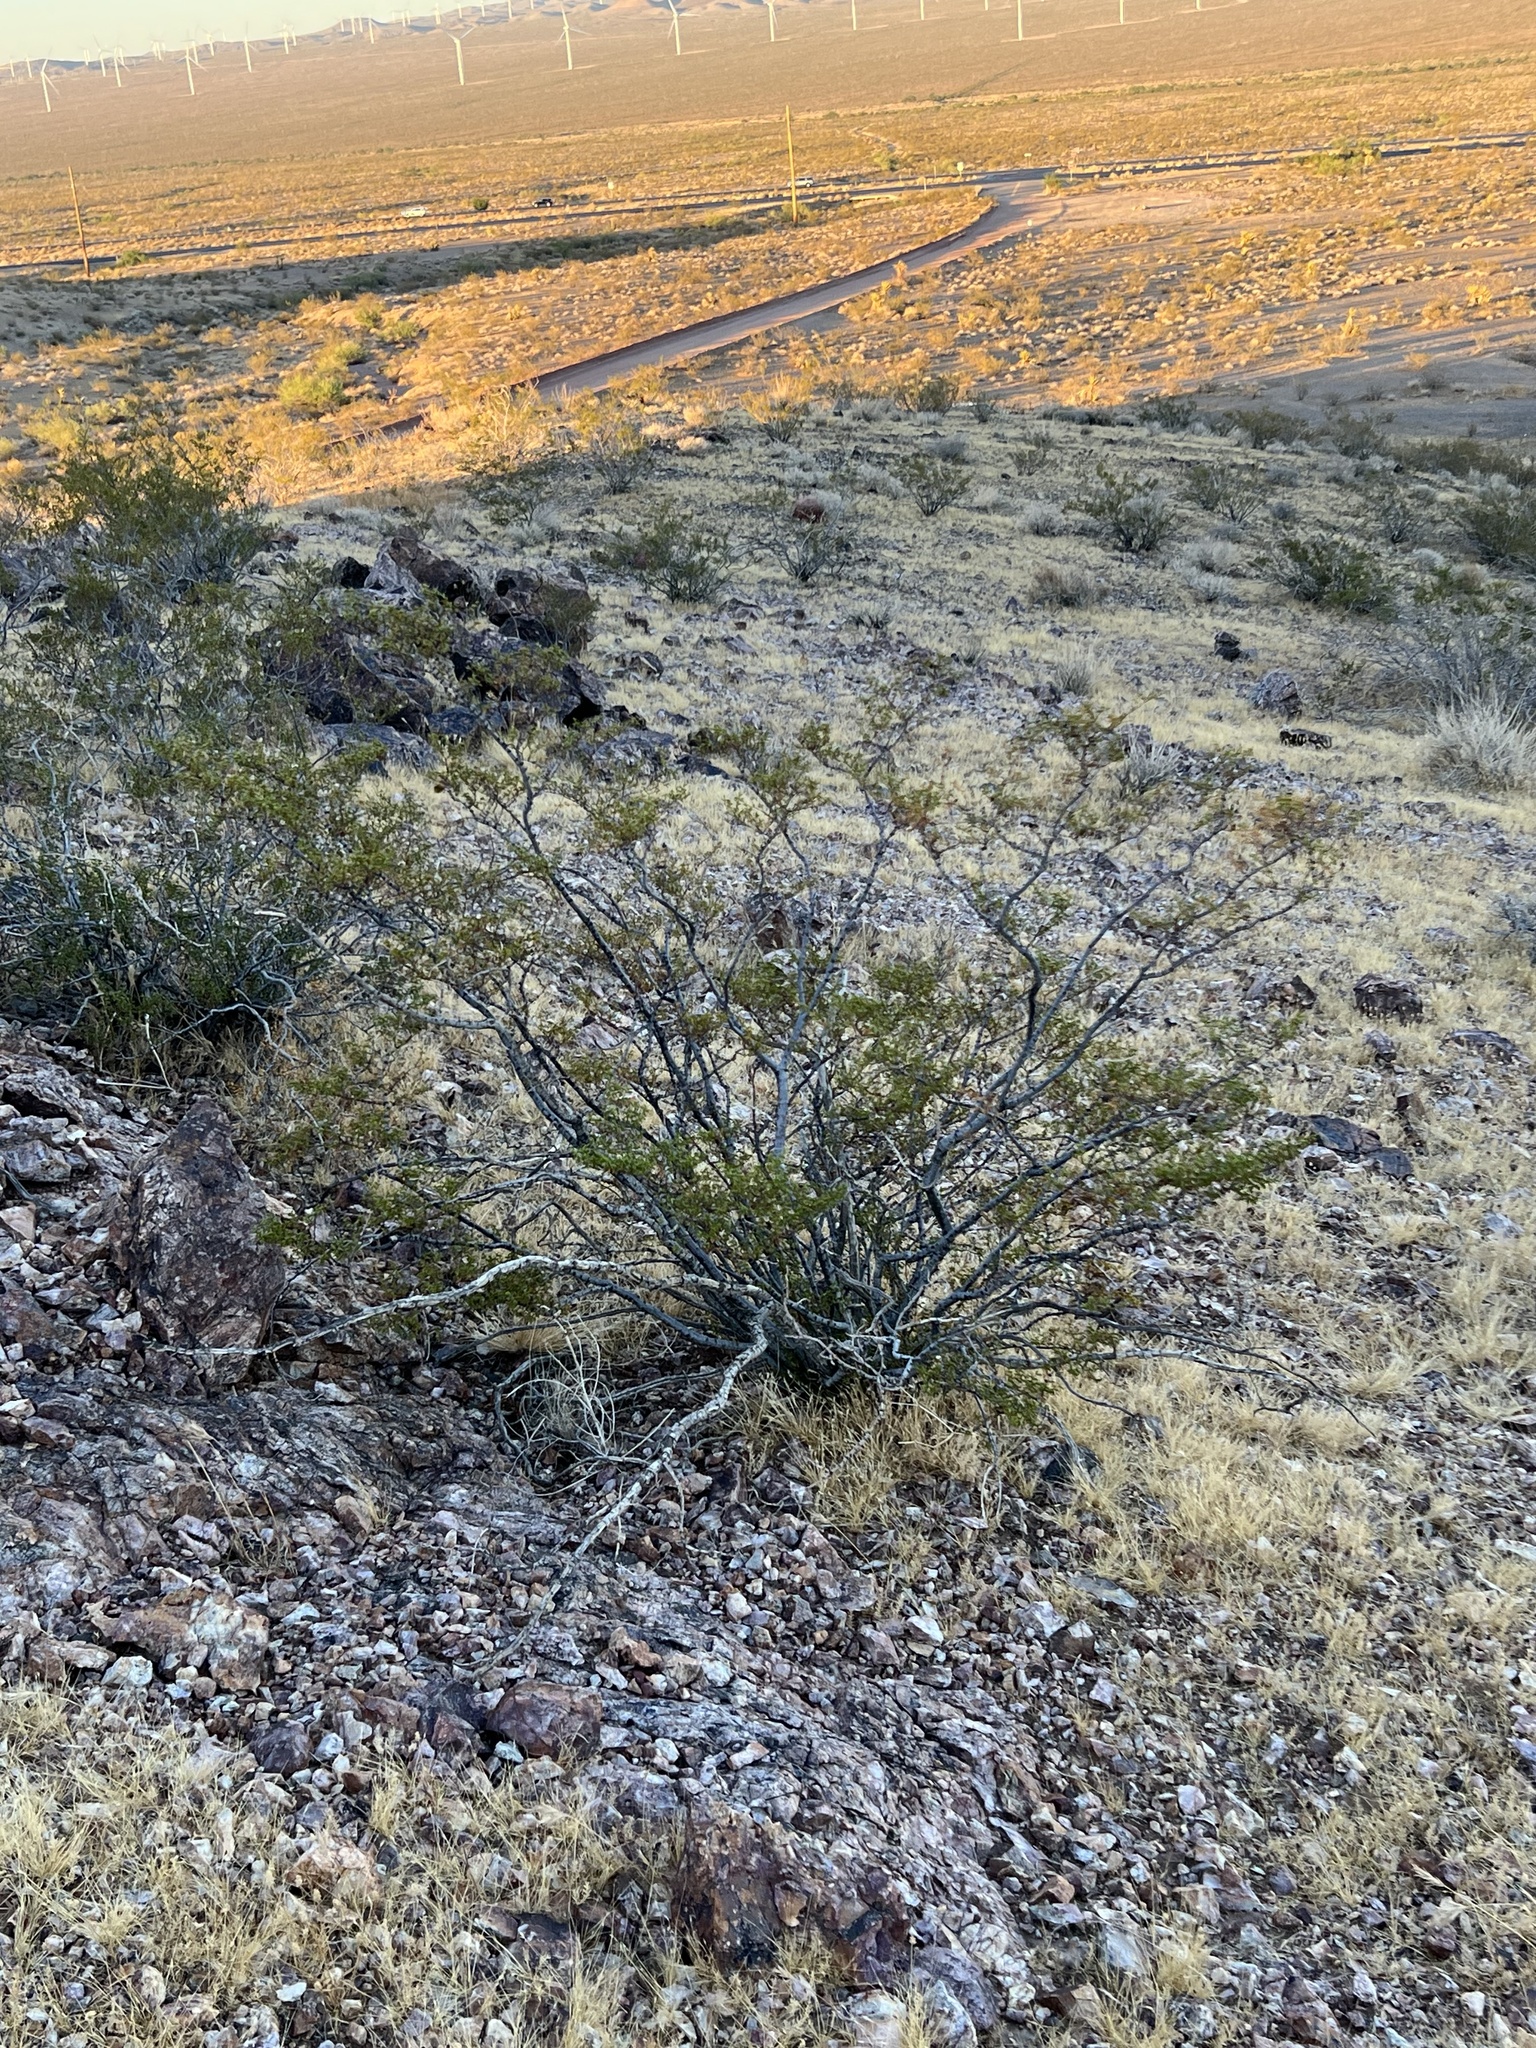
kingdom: Plantae
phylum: Tracheophyta
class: Magnoliopsida
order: Zygophyllales
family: Zygophyllaceae
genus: Larrea
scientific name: Larrea tridentata
